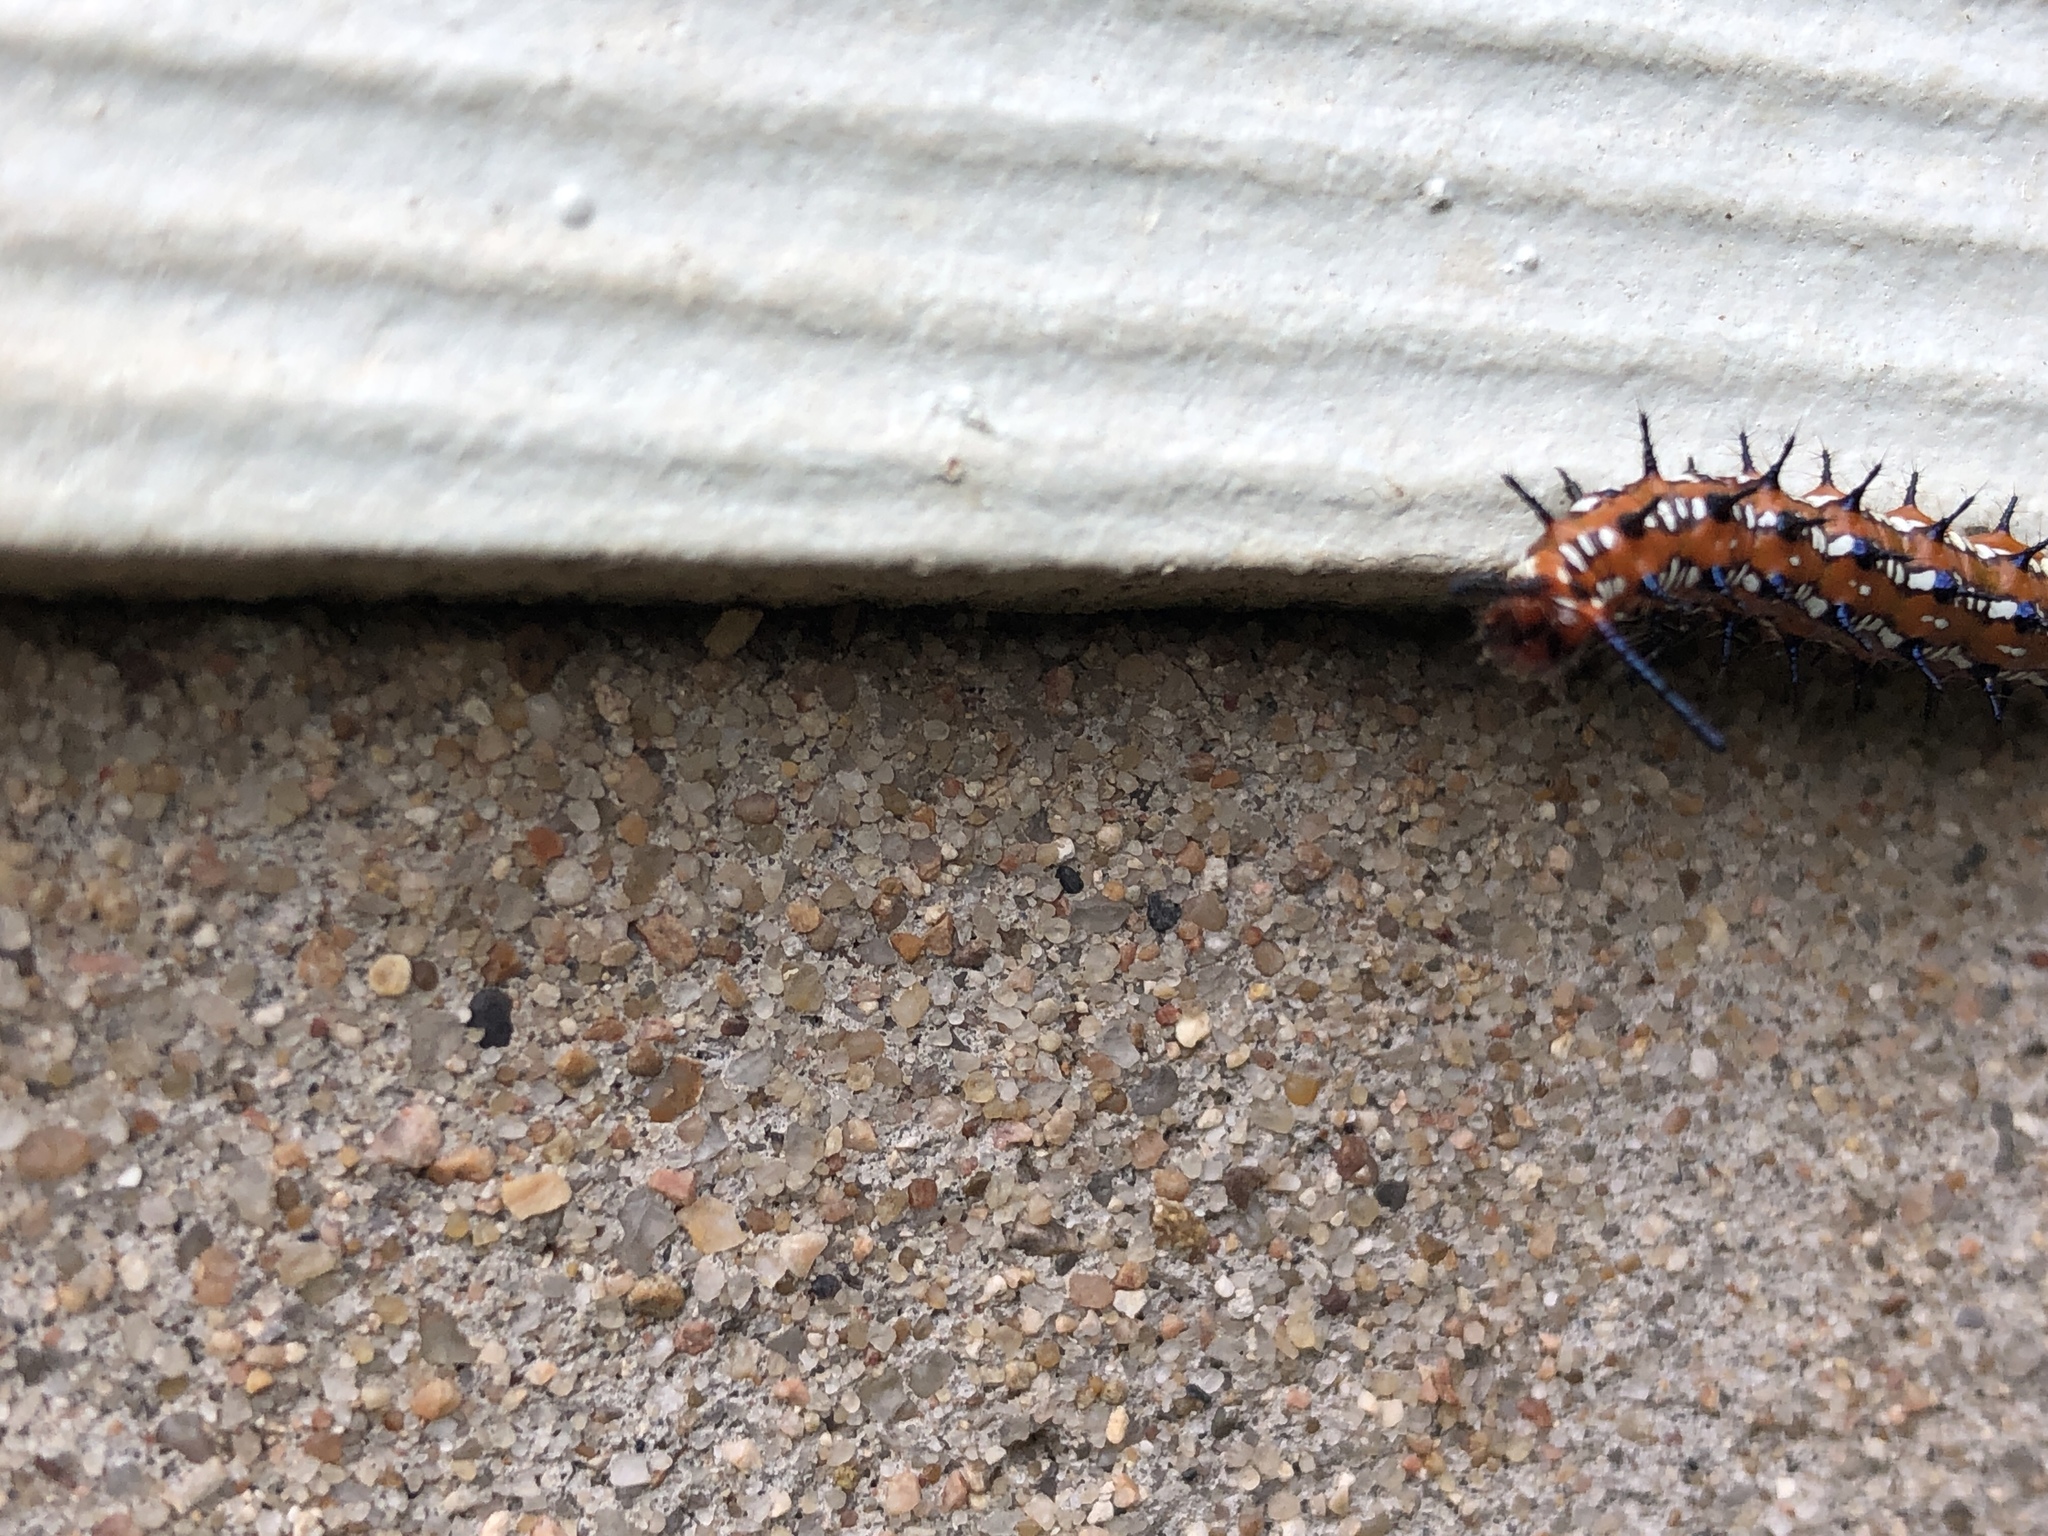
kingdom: Animalia
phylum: Arthropoda
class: Insecta
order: Lepidoptera
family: Nymphalidae
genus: Euptoieta
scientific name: Euptoieta claudia
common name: Variegated fritillary
